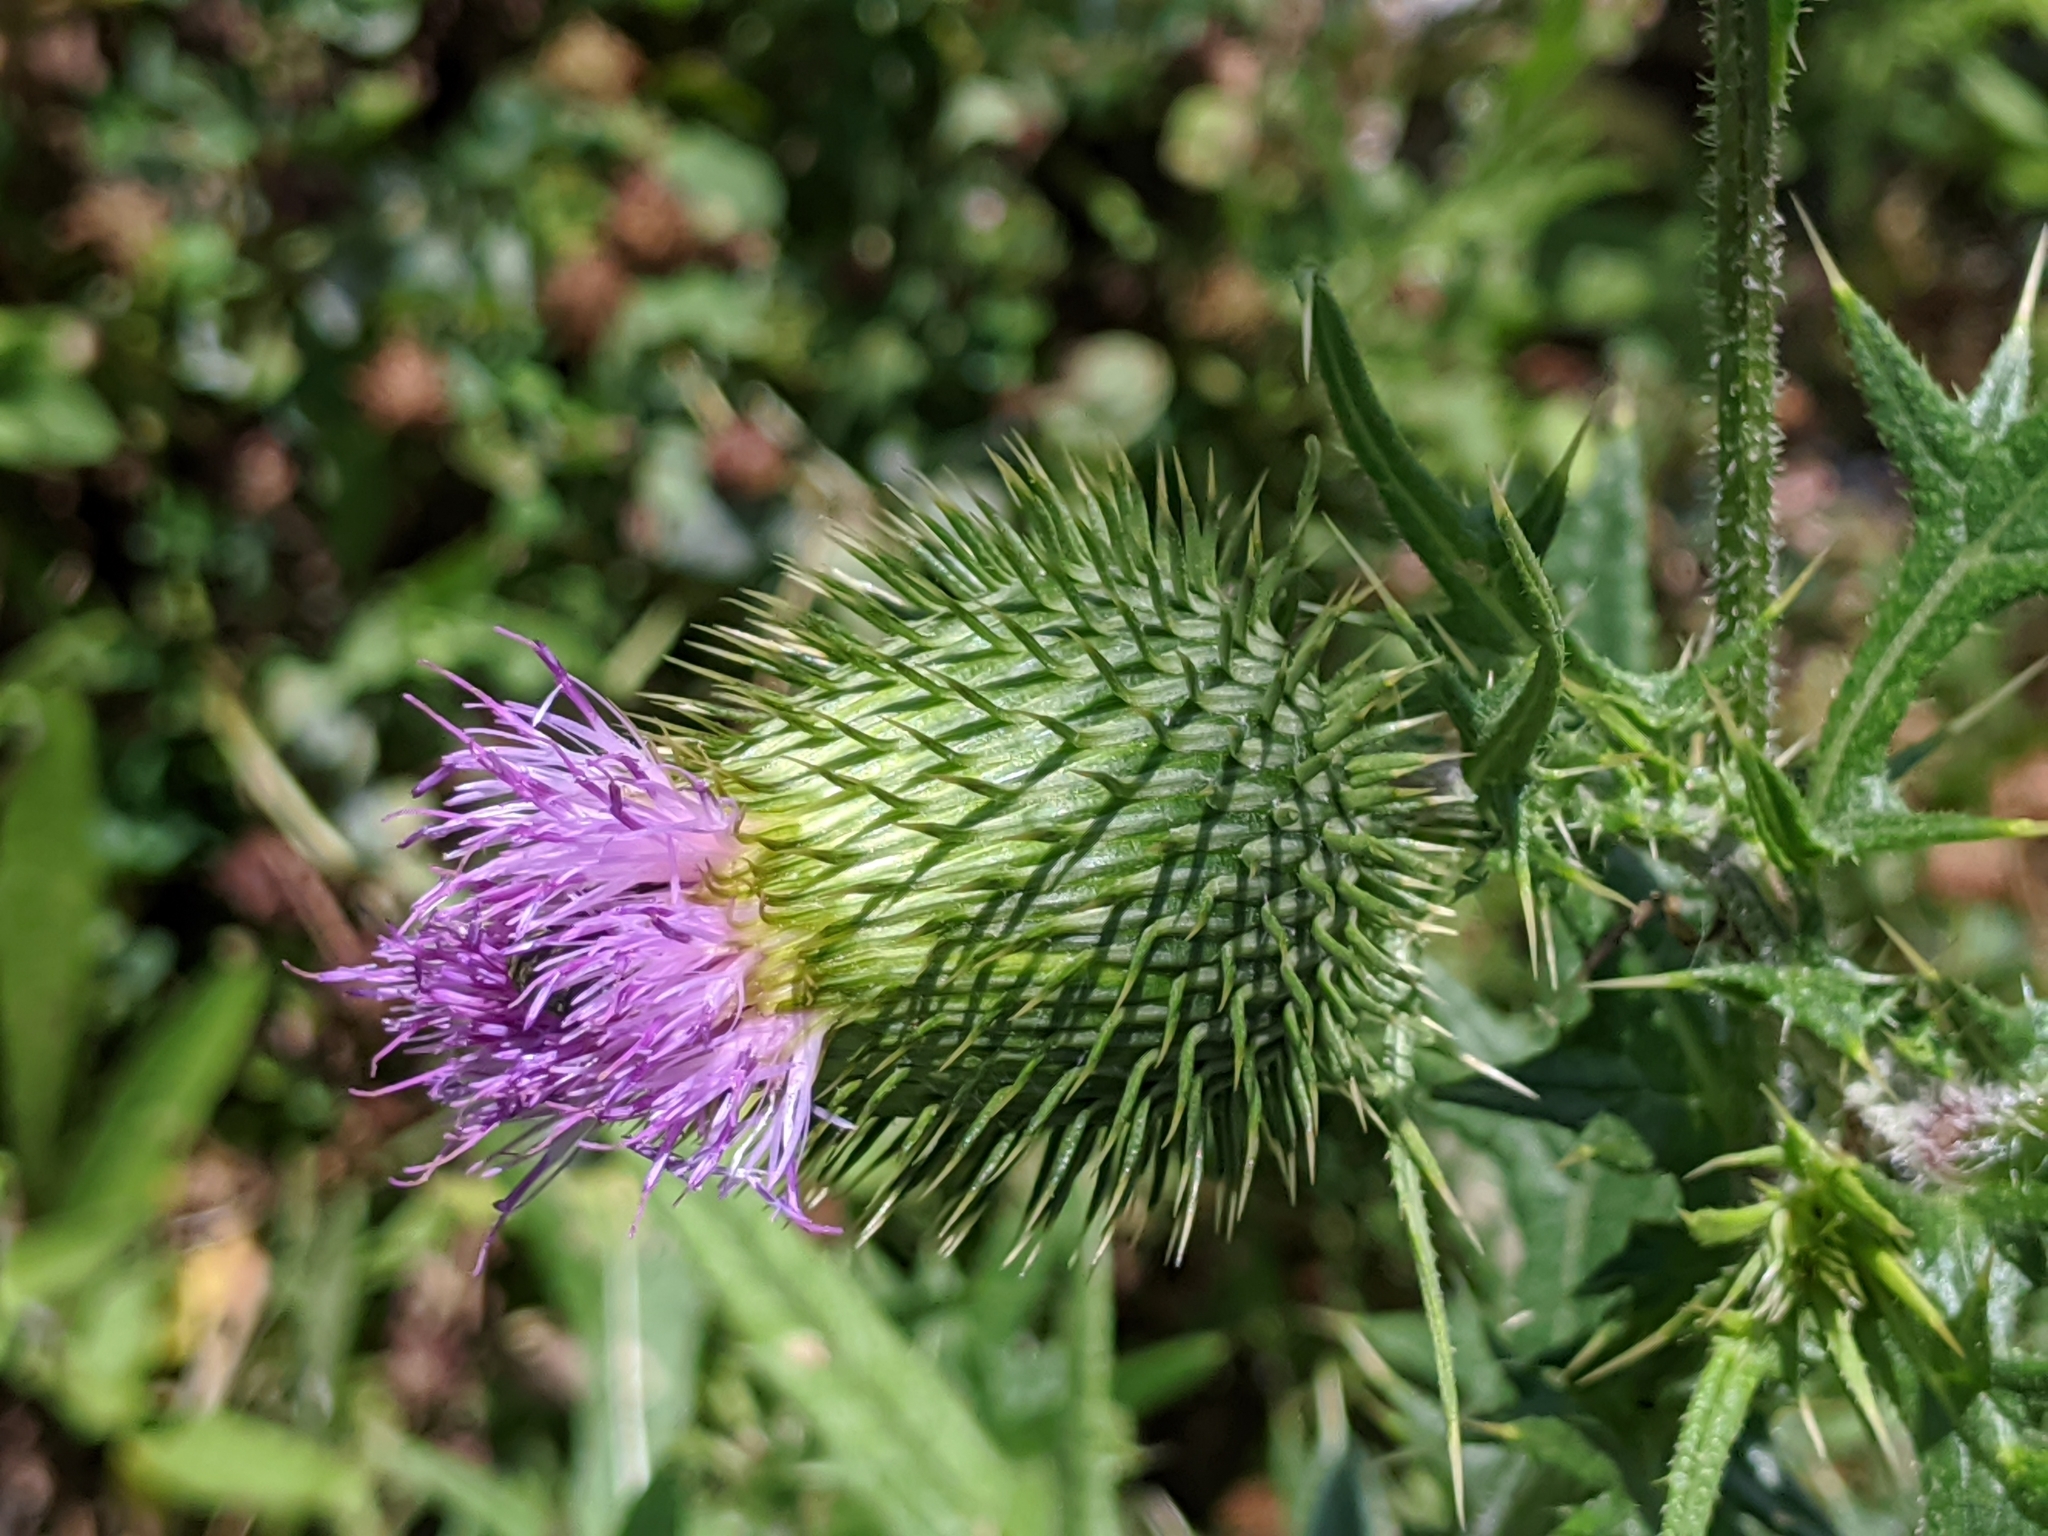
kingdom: Plantae
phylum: Tracheophyta
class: Magnoliopsida
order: Asterales
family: Asteraceae
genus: Cirsium
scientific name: Cirsium vulgare
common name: Bull thistle
